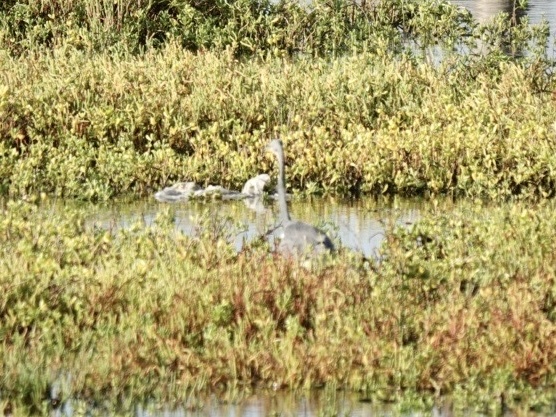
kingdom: Animalia
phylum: Chordata
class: Aves
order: Pelecaniformes
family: Ardeidae
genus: Egretta
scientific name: Egretta tricolor
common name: Tricolored heron
